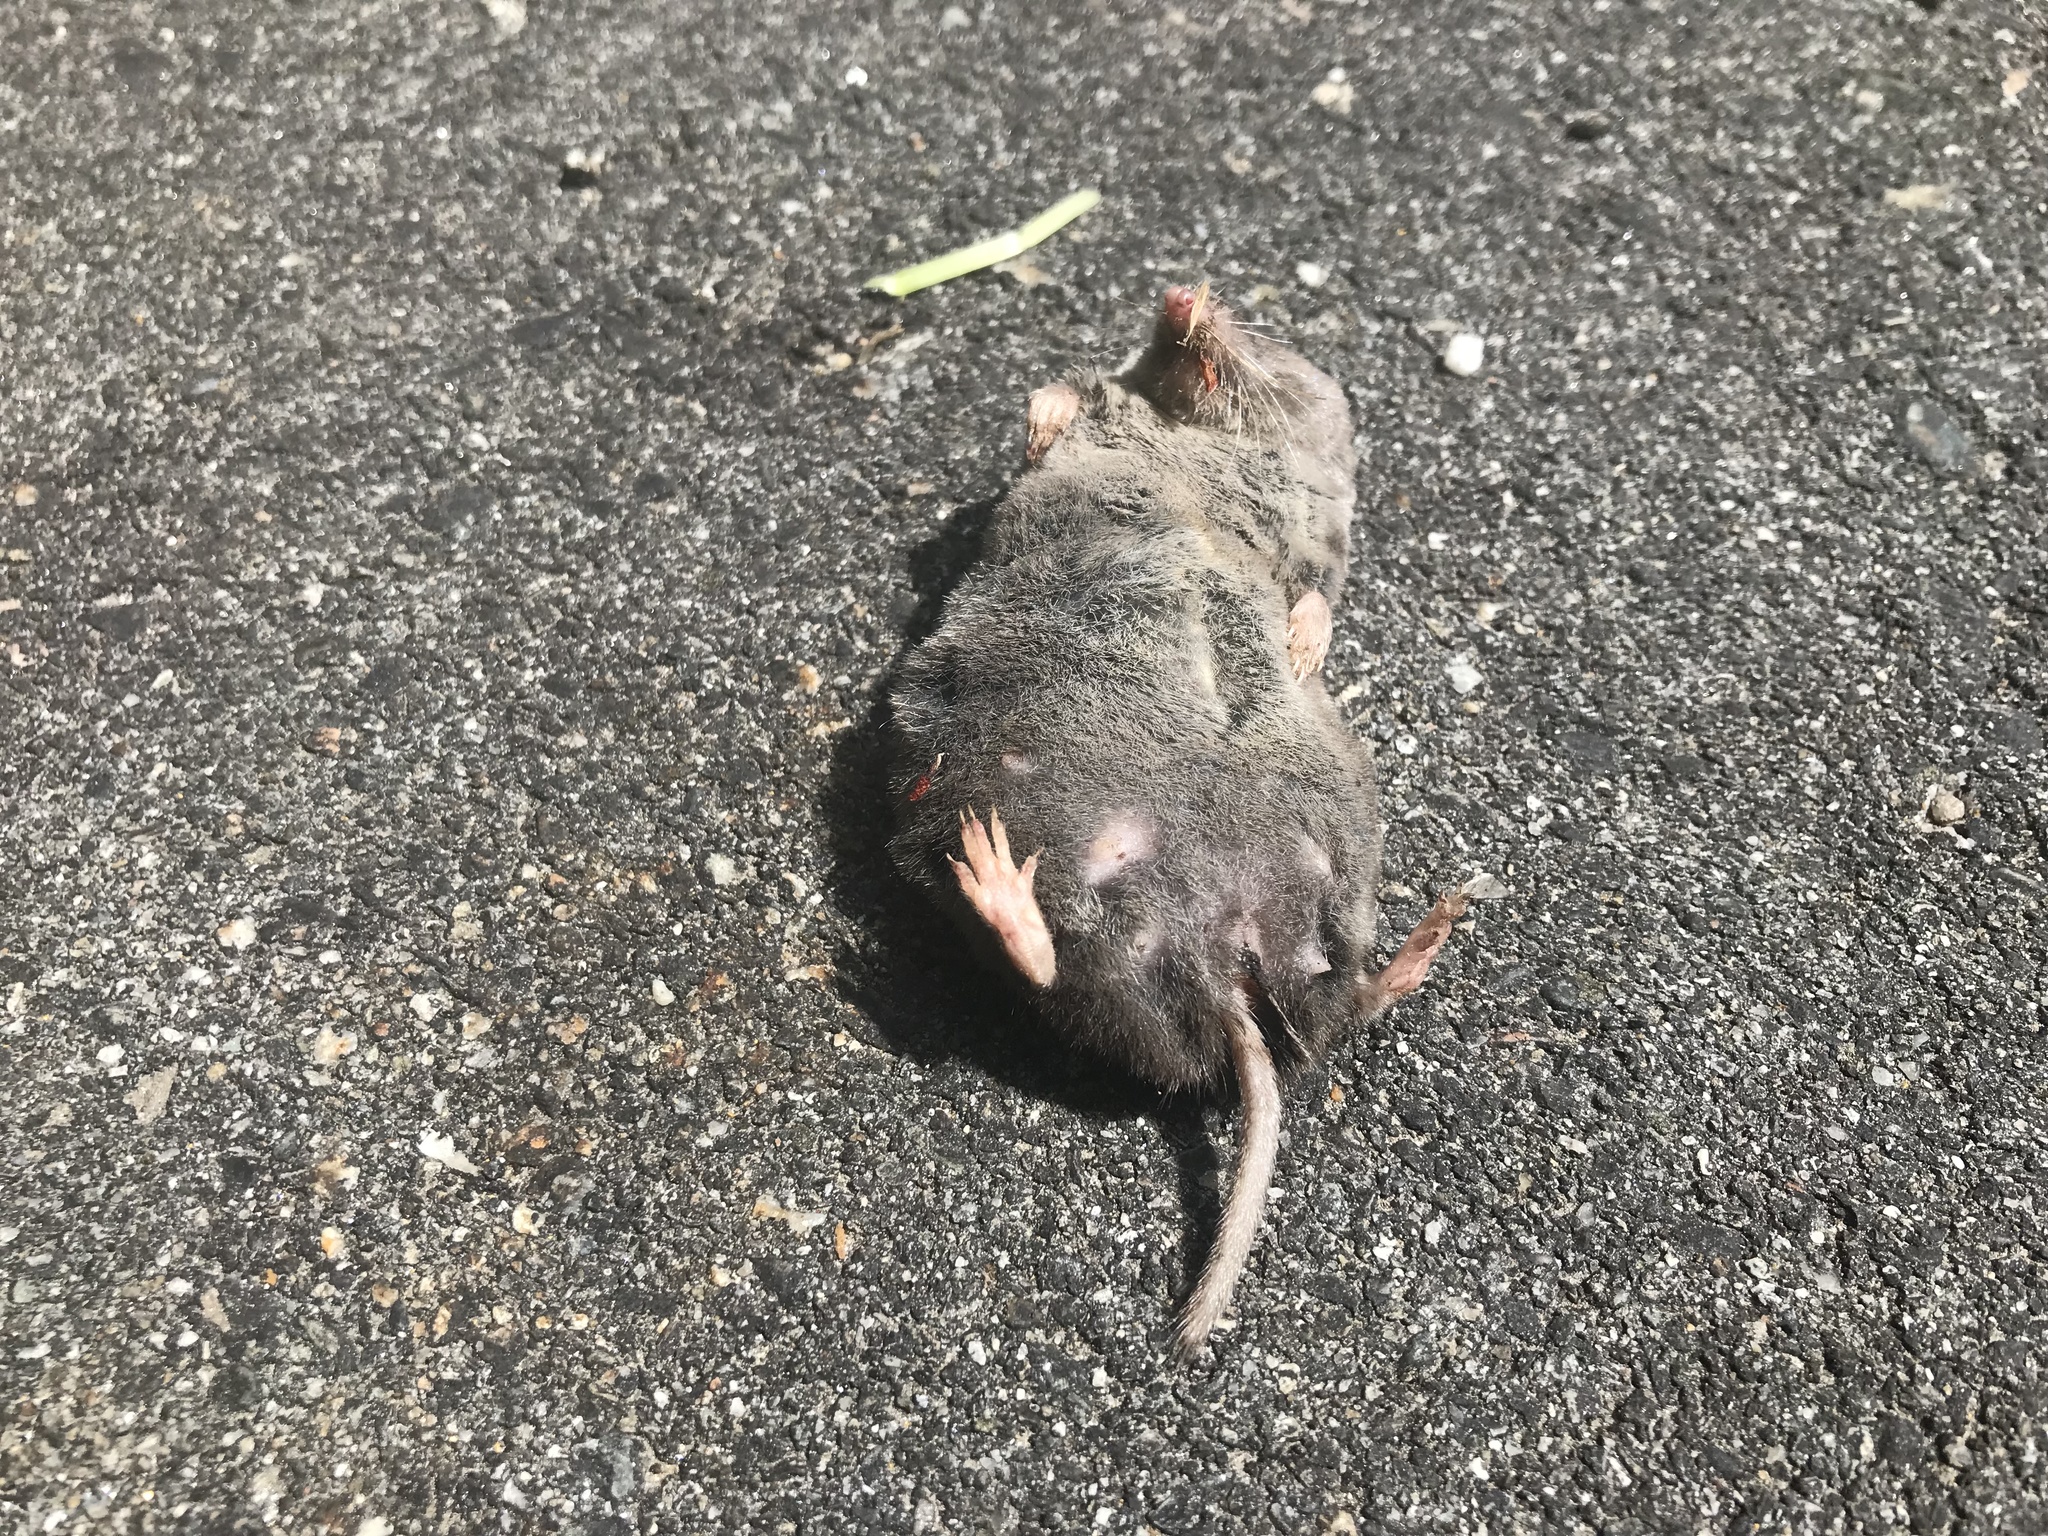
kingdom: Animalia
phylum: Chordata
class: Mammalia
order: Soricomorpha
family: Soricidae
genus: Blarina
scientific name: Blarina brevicauda
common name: Northern short-tailed shrew
